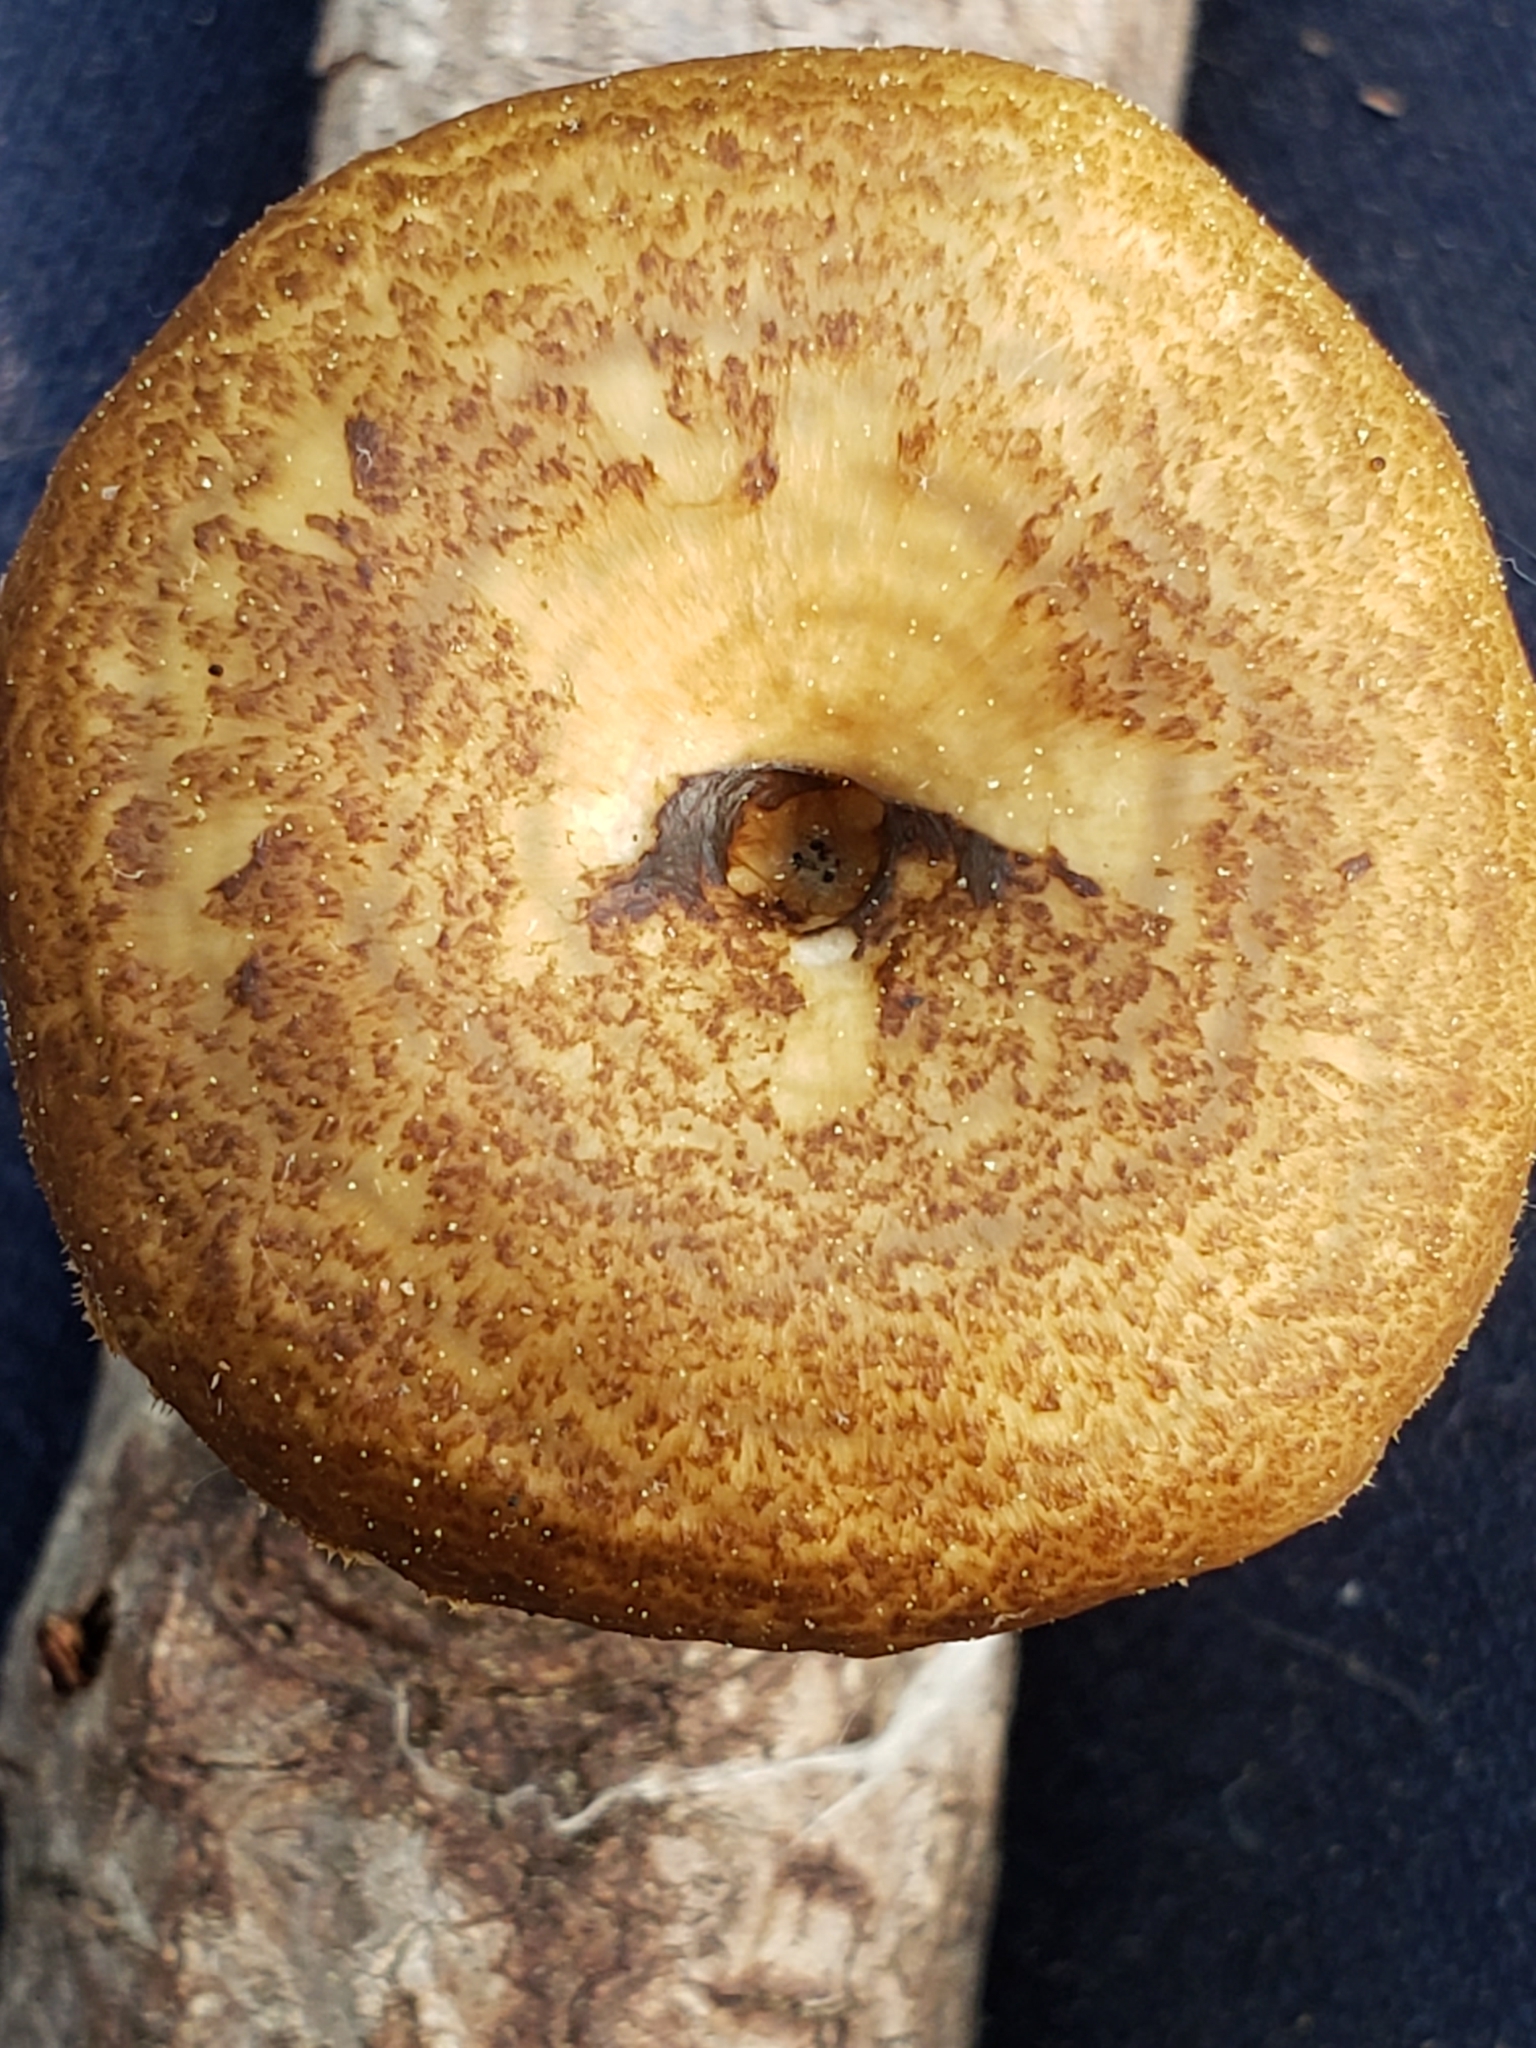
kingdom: Fungi
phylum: Basidiomycota
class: Agaricomycetes
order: Polyporales
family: Polyporaceae
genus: Lentinus
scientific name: Lentinus arcularius
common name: Spring polypore
